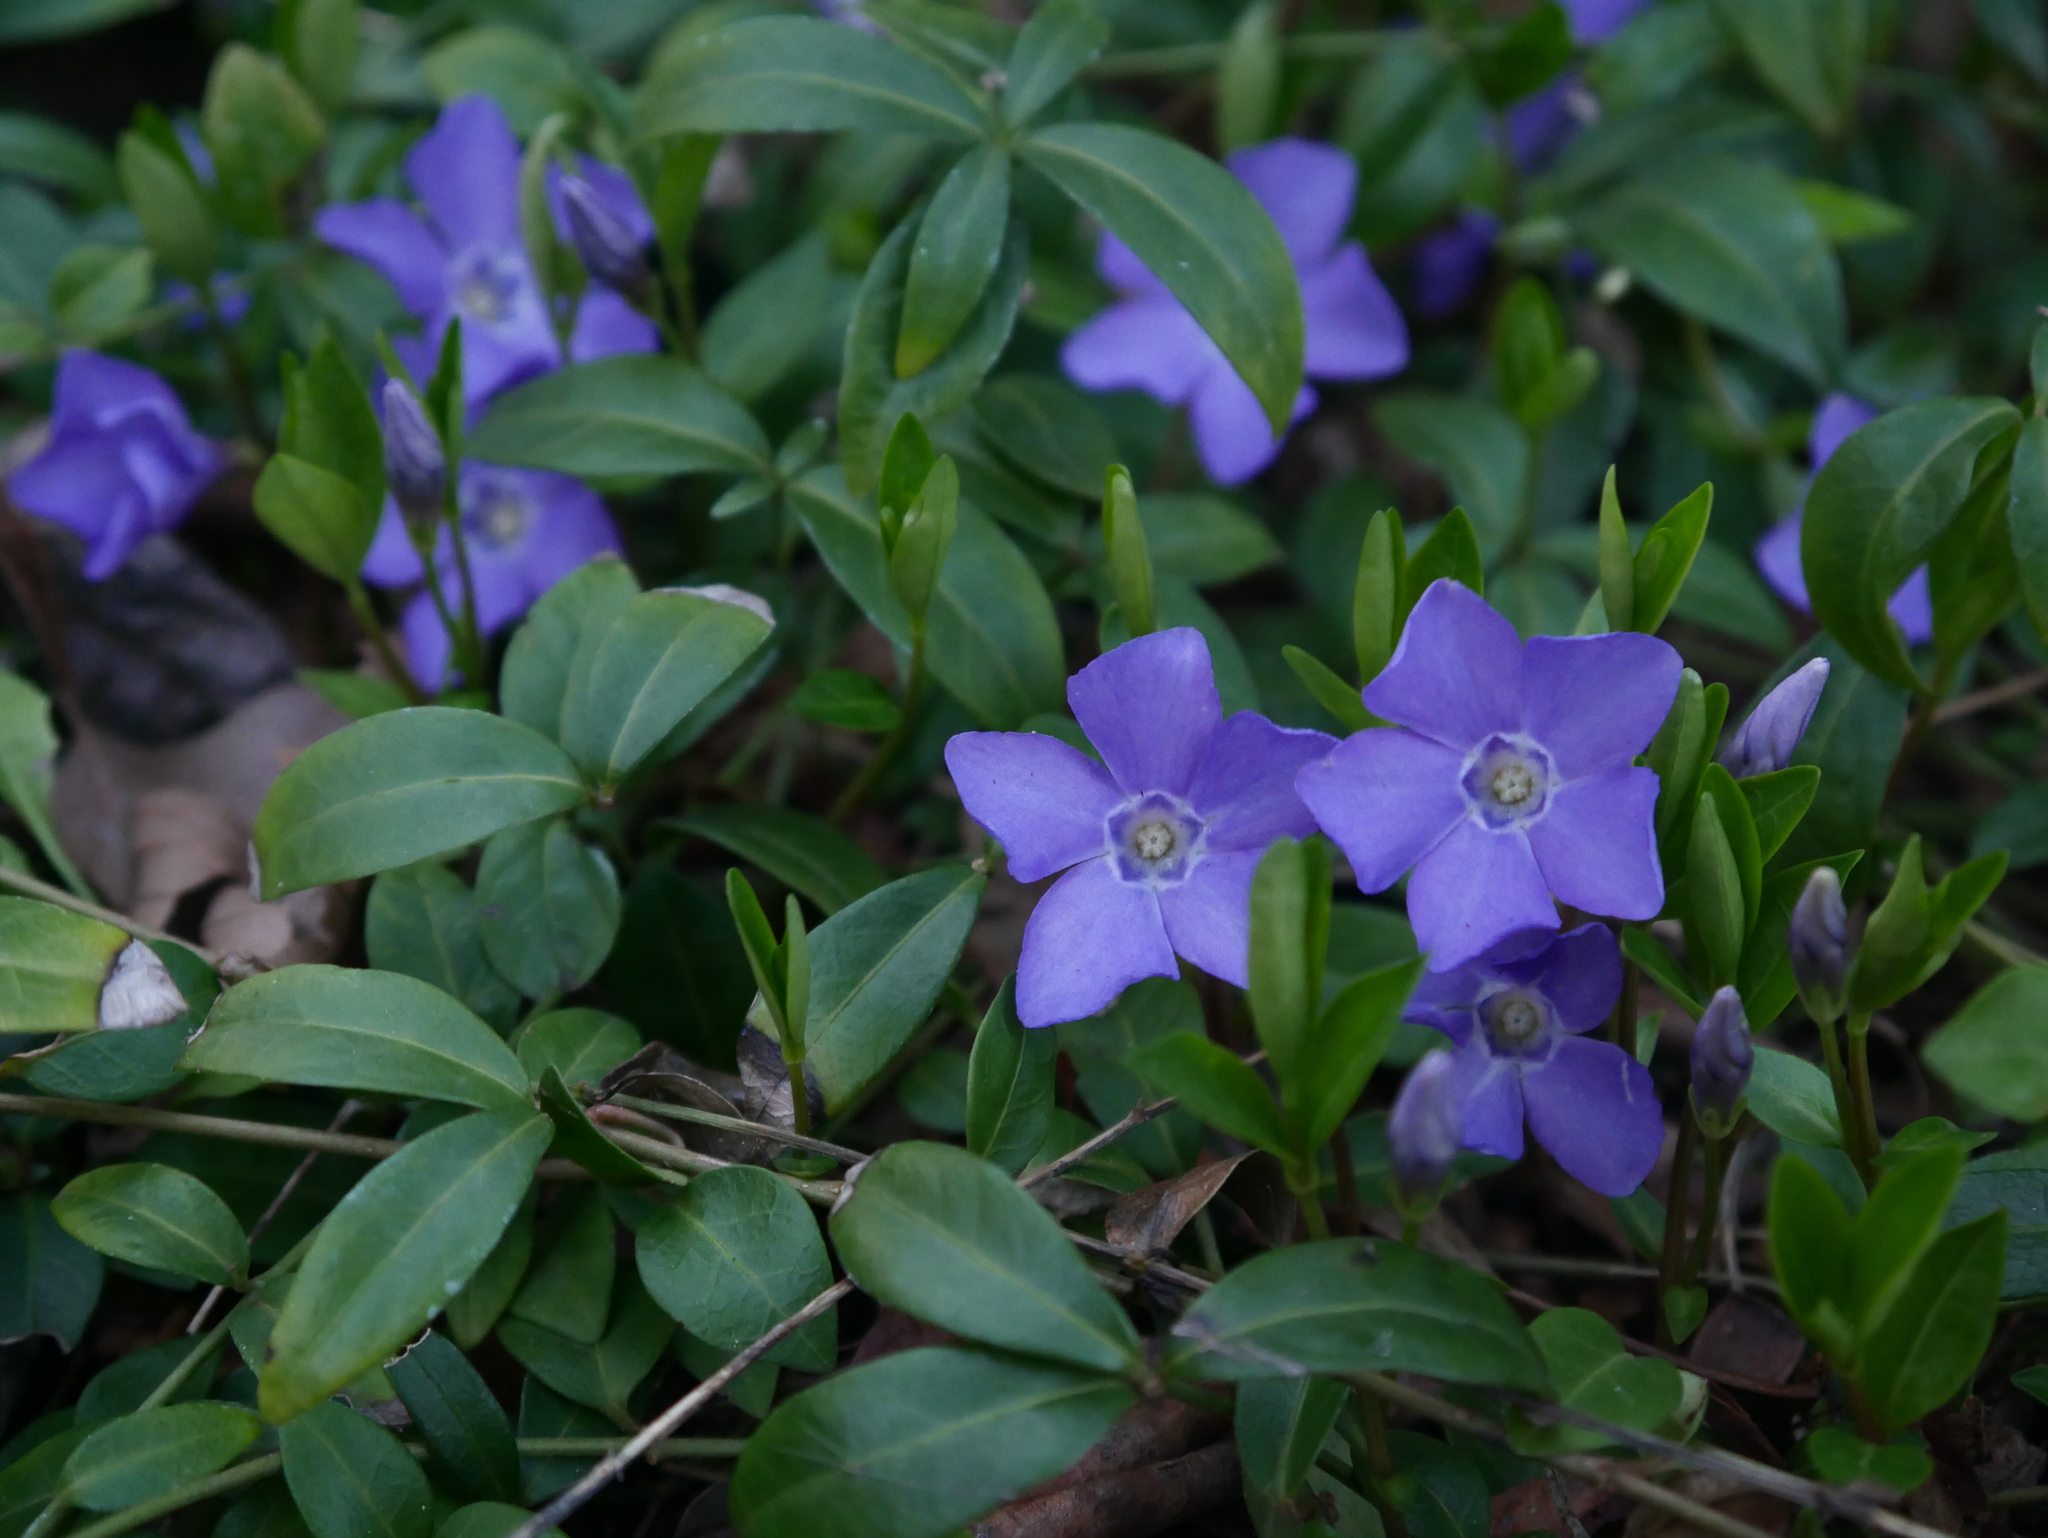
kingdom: Plantae
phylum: Tracheophyta
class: Magnoliopsida
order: Gentianales
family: Apocynaceae
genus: Vinca
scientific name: Vinca minor
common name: Lesser periwinkle
